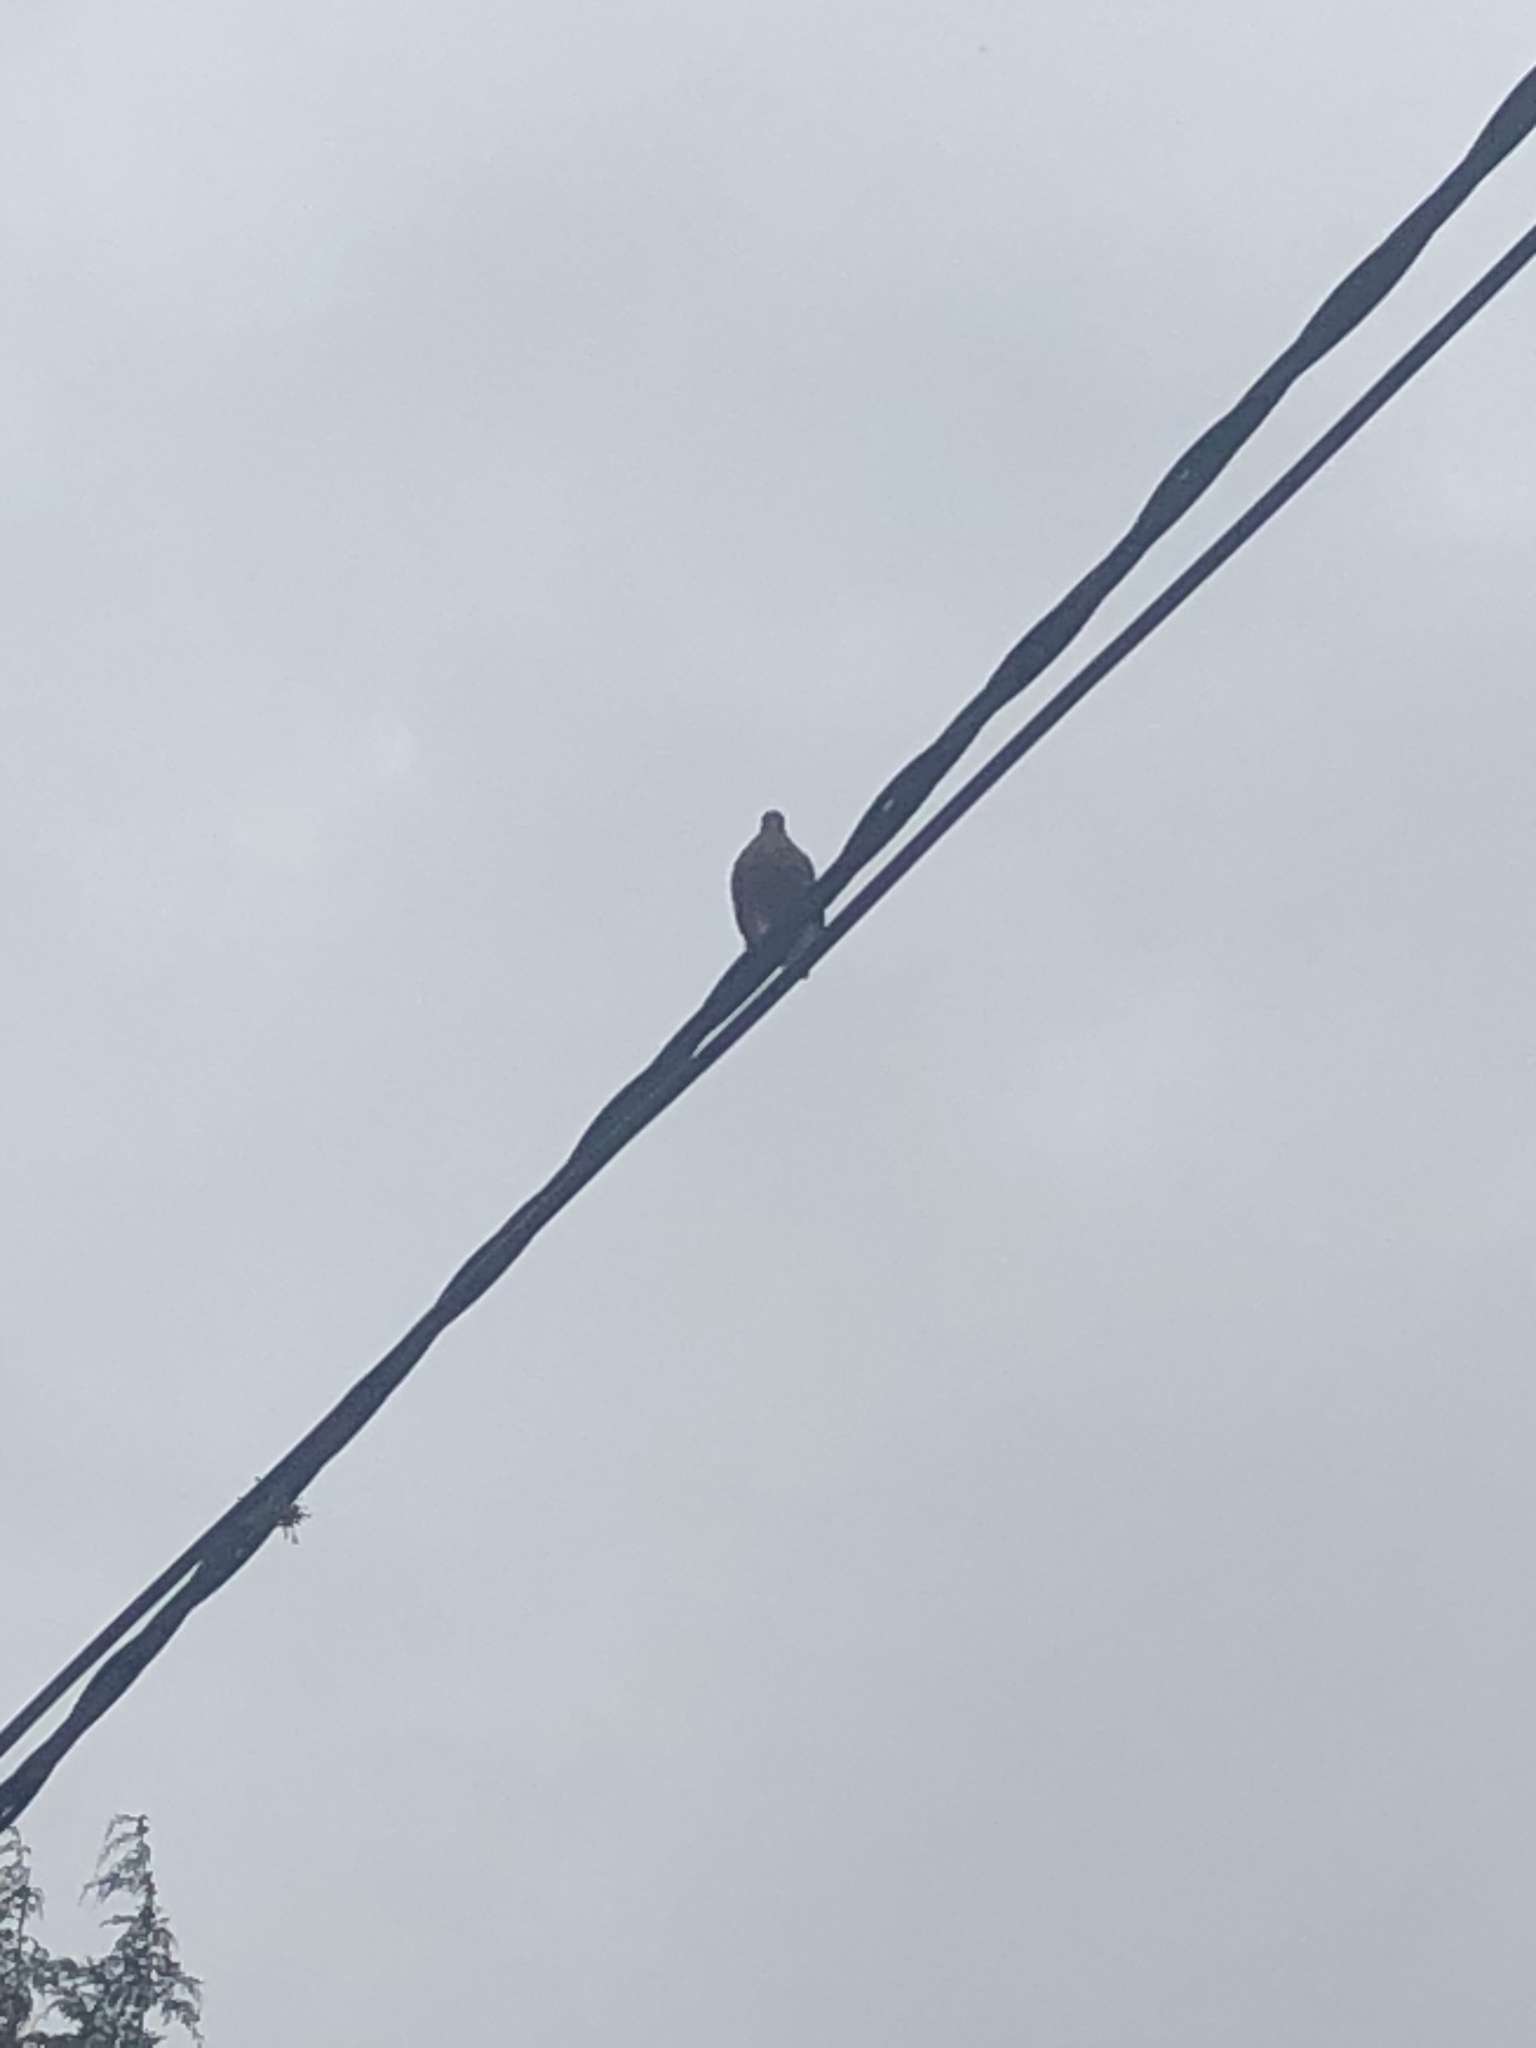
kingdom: Animalia
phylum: Chordata
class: Aves
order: Columbiformes
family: Columbidae
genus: Zenaida
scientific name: Zenaida auriculata
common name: Eared dove
